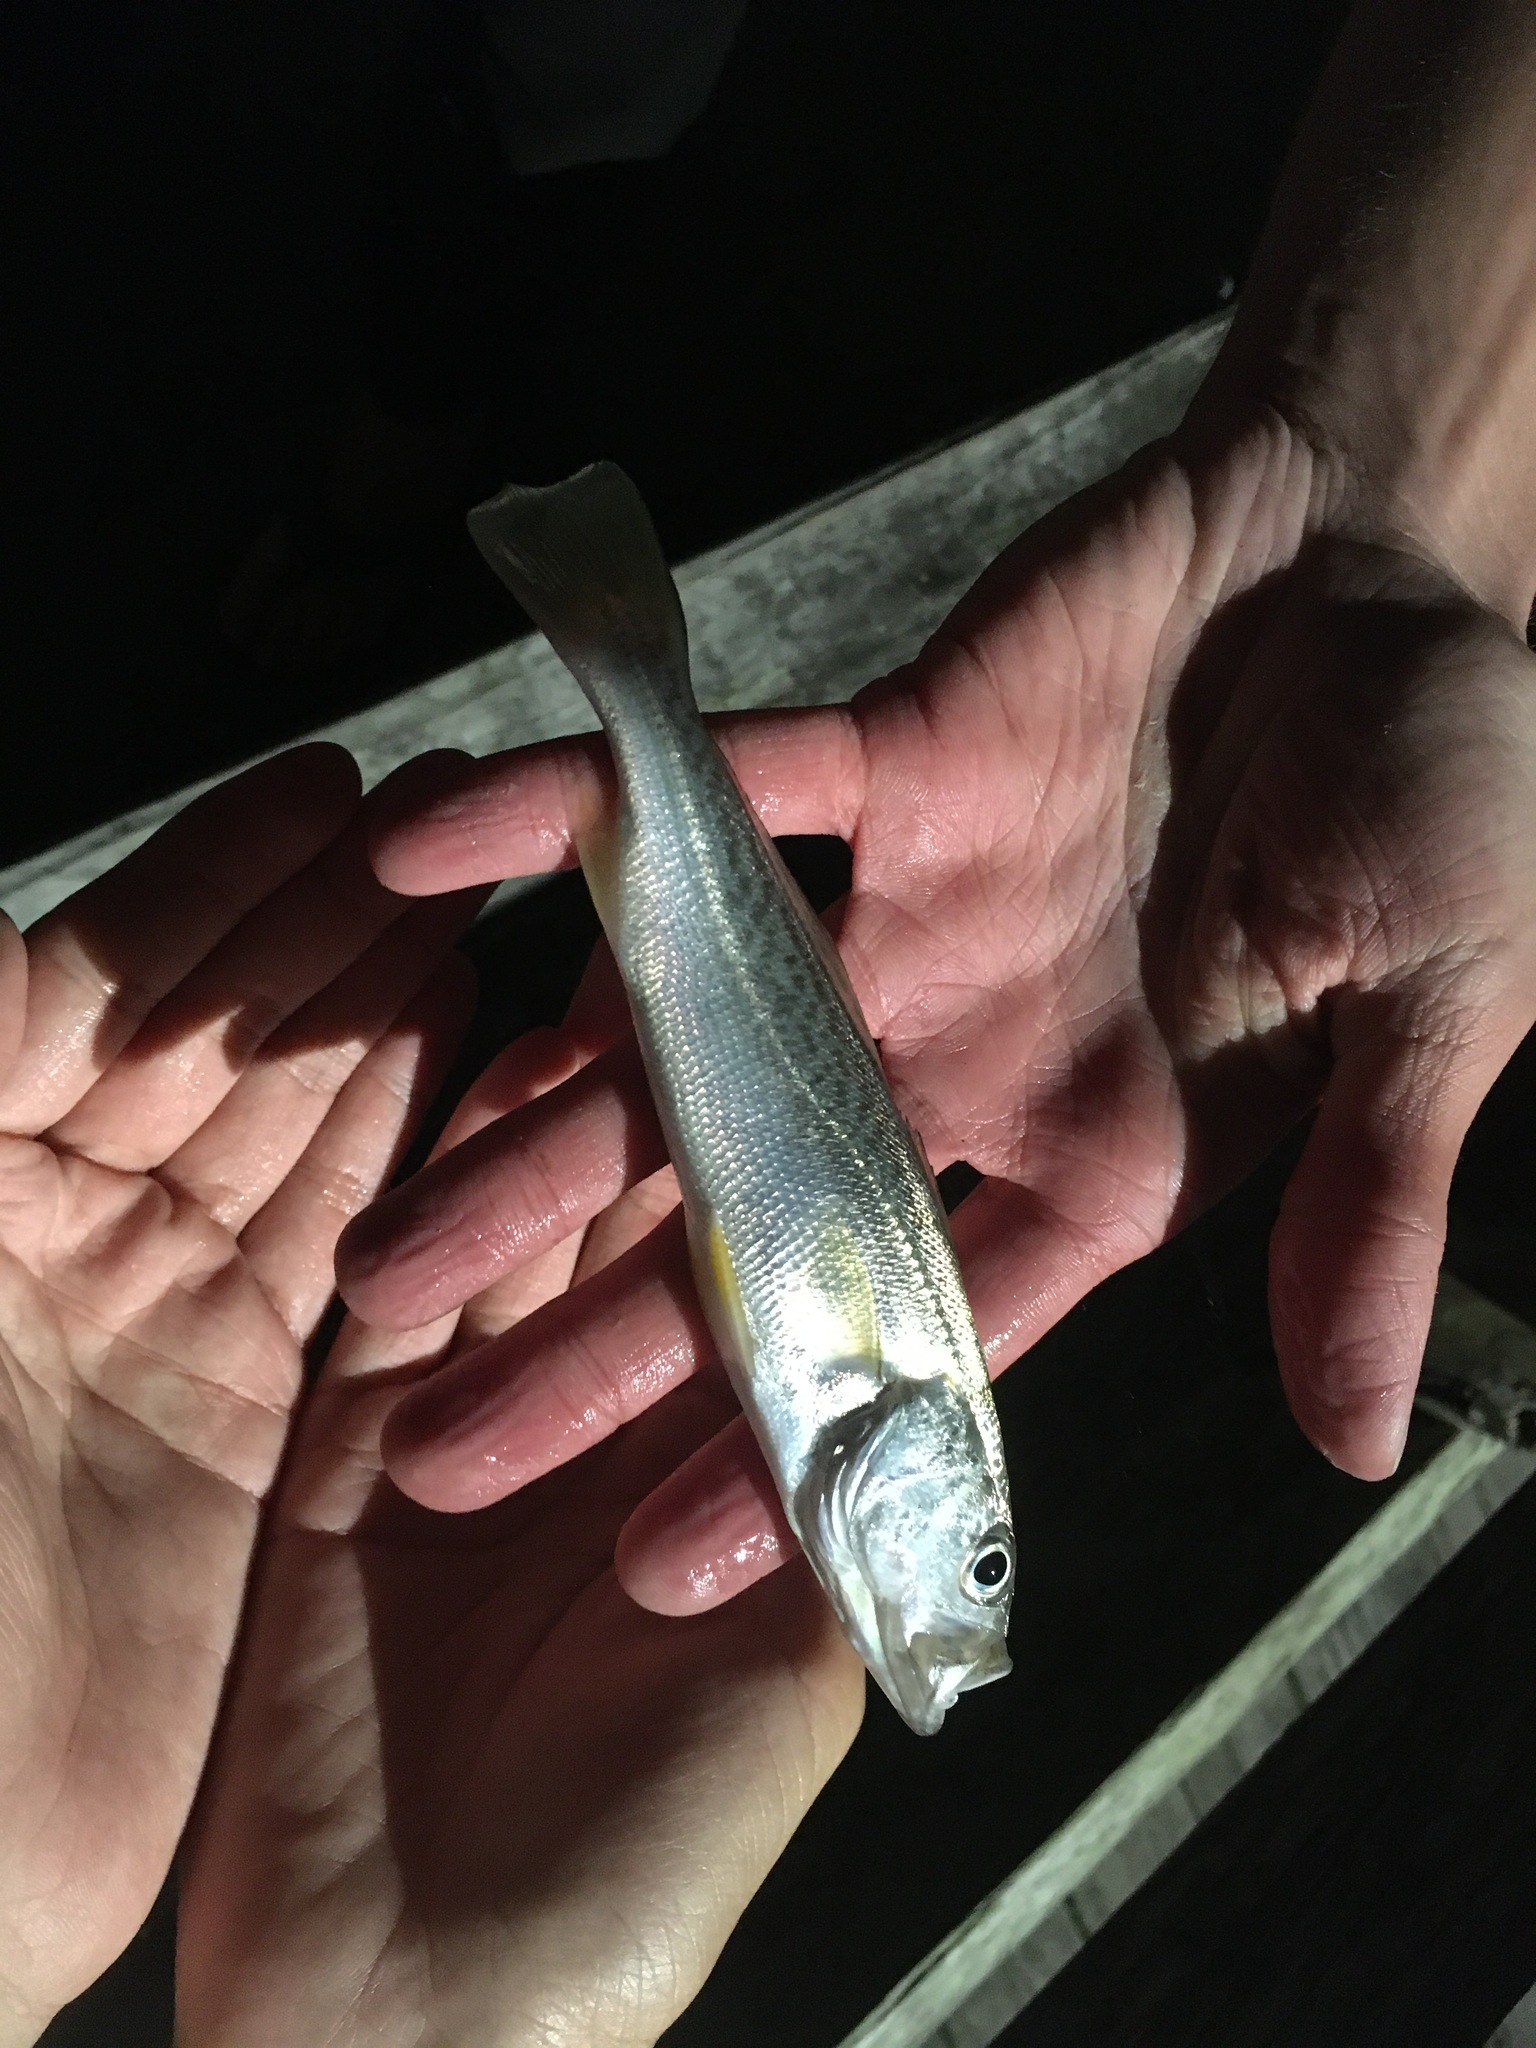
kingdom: Animalia
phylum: Chordata
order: Perciformes
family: Sciaenidae
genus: Cynoscion
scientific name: Cynoscion regalis
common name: Squeteague
